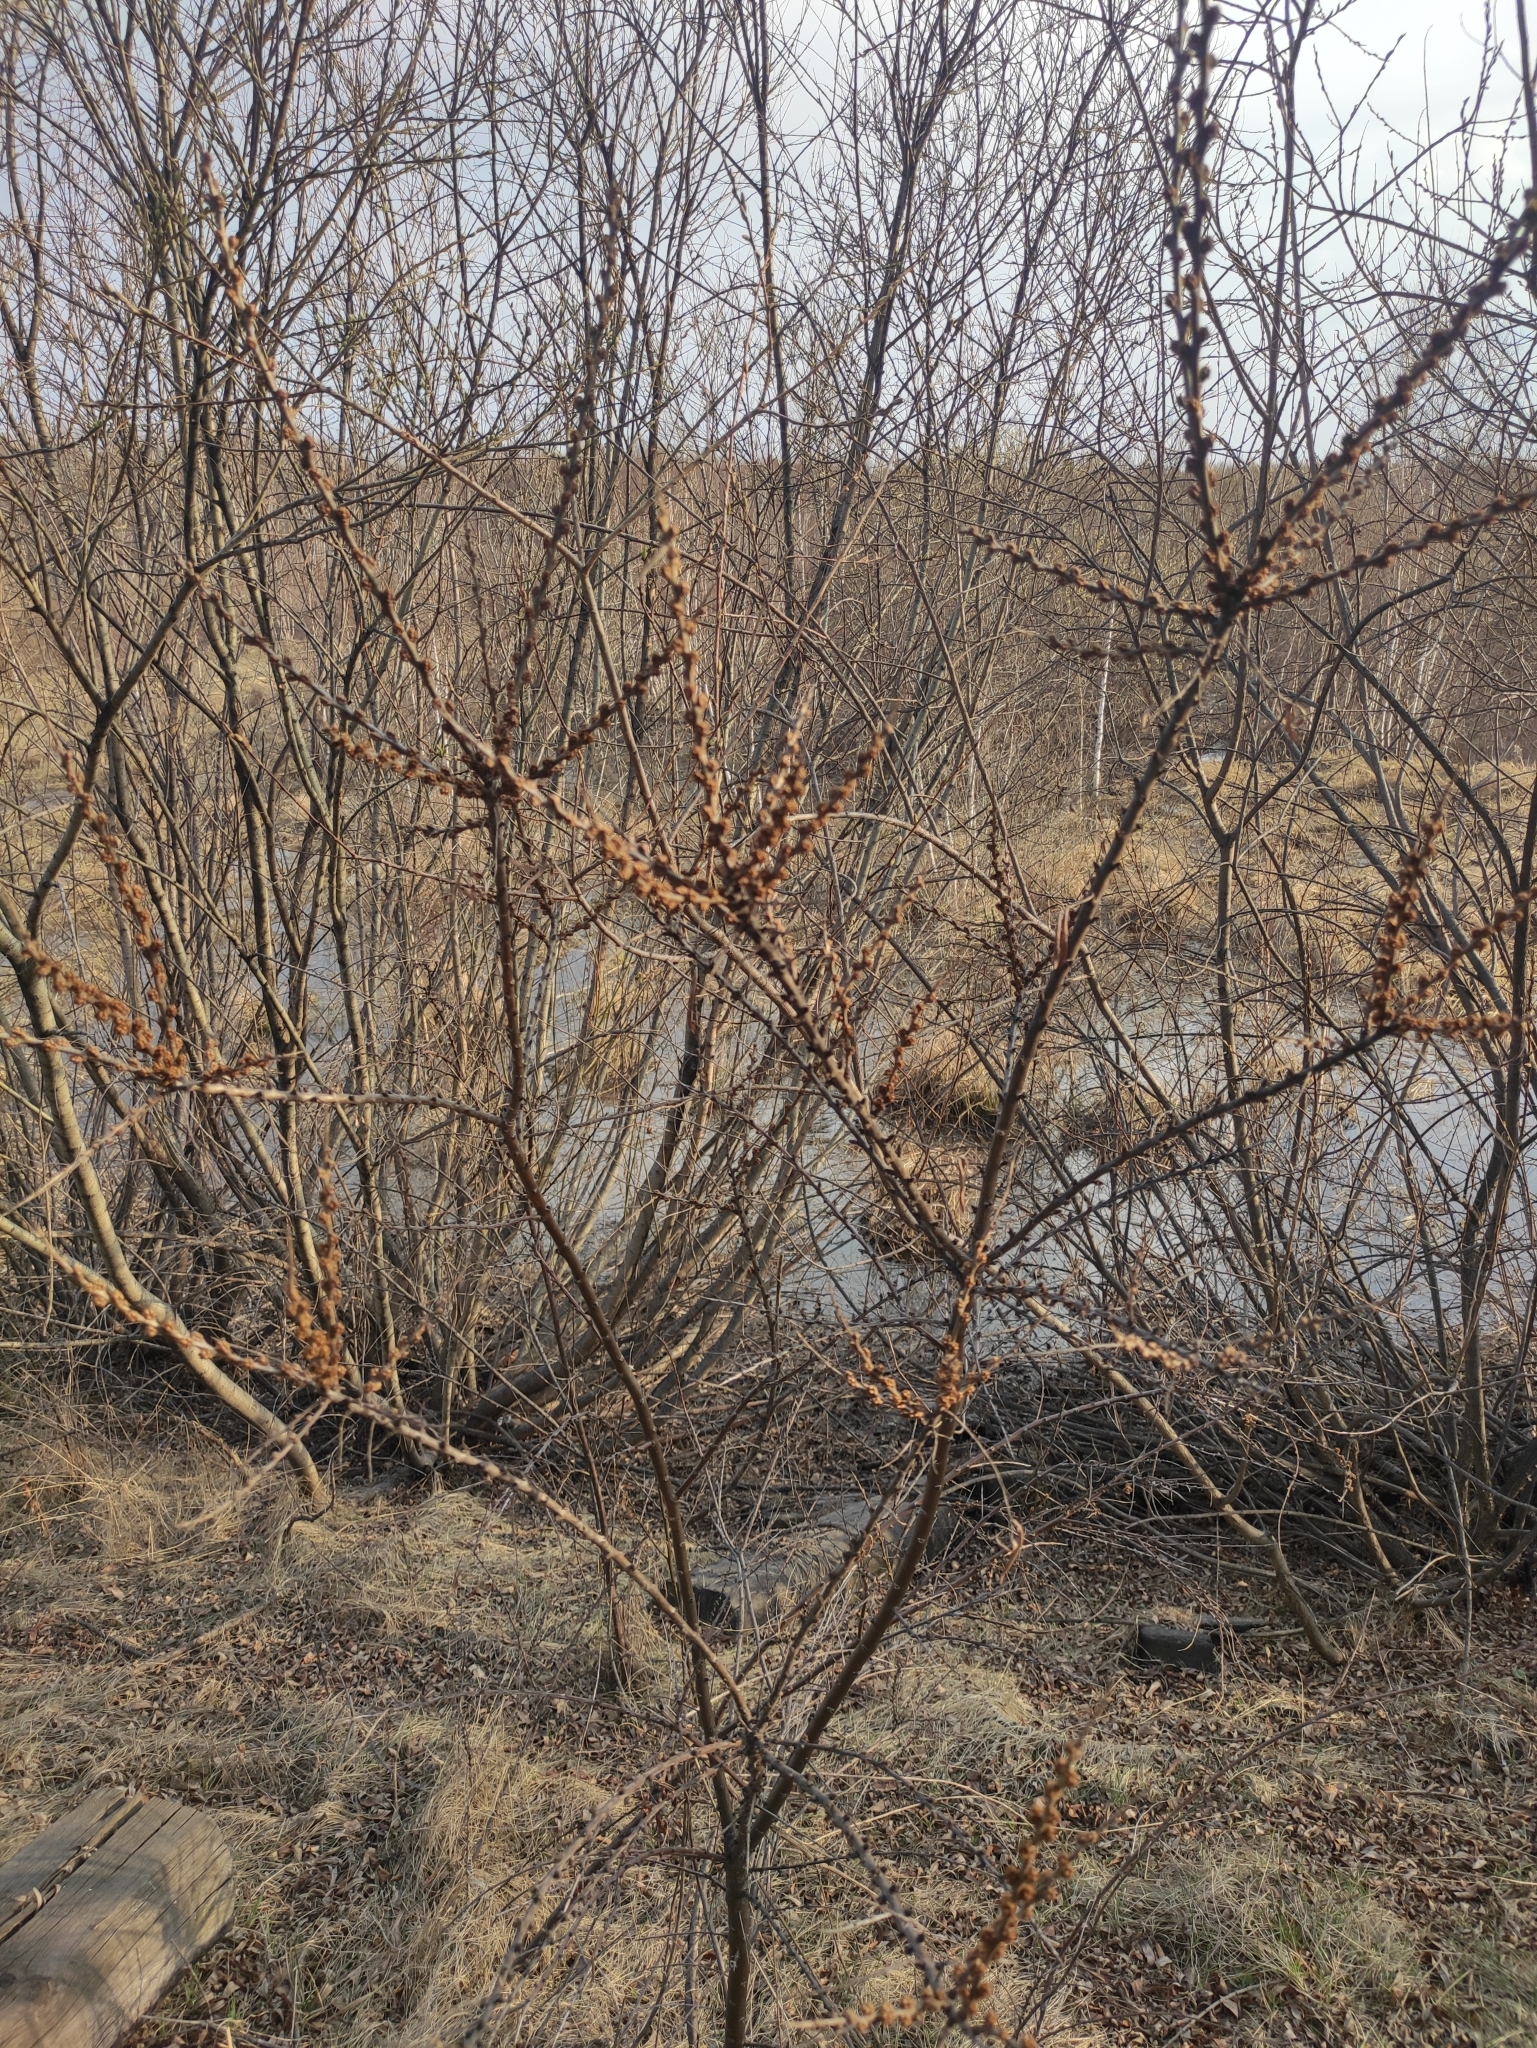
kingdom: Plantae
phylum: Tracheophyta
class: Magnoliopsida
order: Rosales
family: Elaeagnaceae
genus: Hippophae
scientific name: Hippophae rhamnoides
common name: Sea-buckthorn
